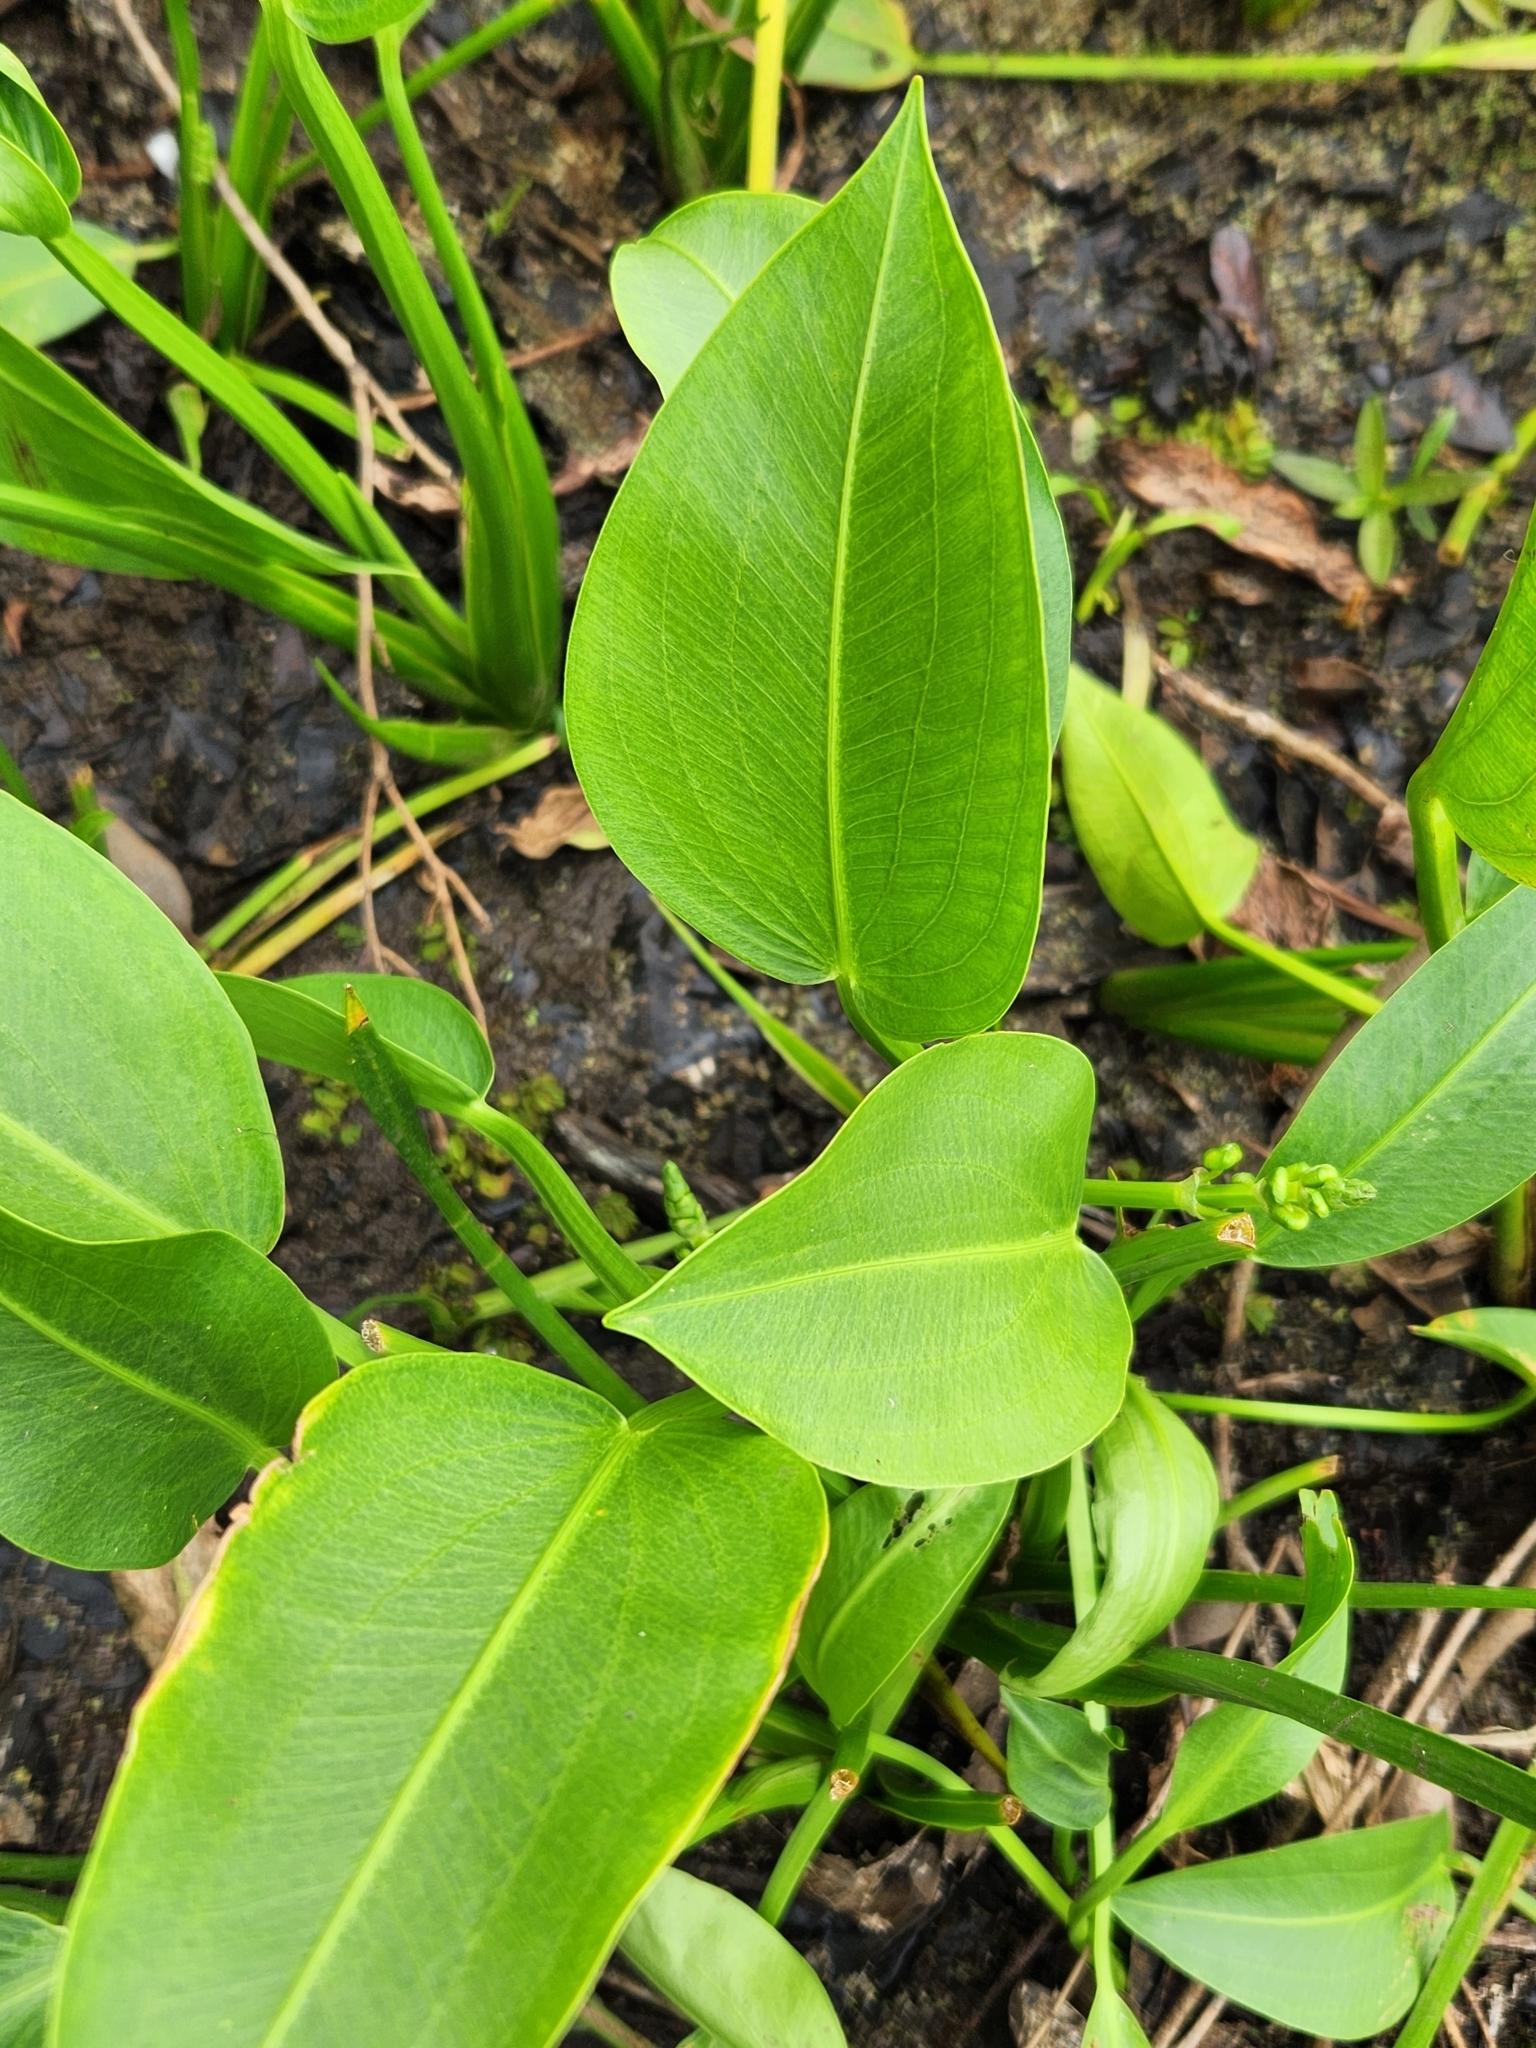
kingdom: Plantae
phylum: Tracheophyta
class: Liliopsida
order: Alismatales
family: Alismataceae
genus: Sagittaria
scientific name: Sagittaria platyphylla
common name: Broad-leaf arrowhead
